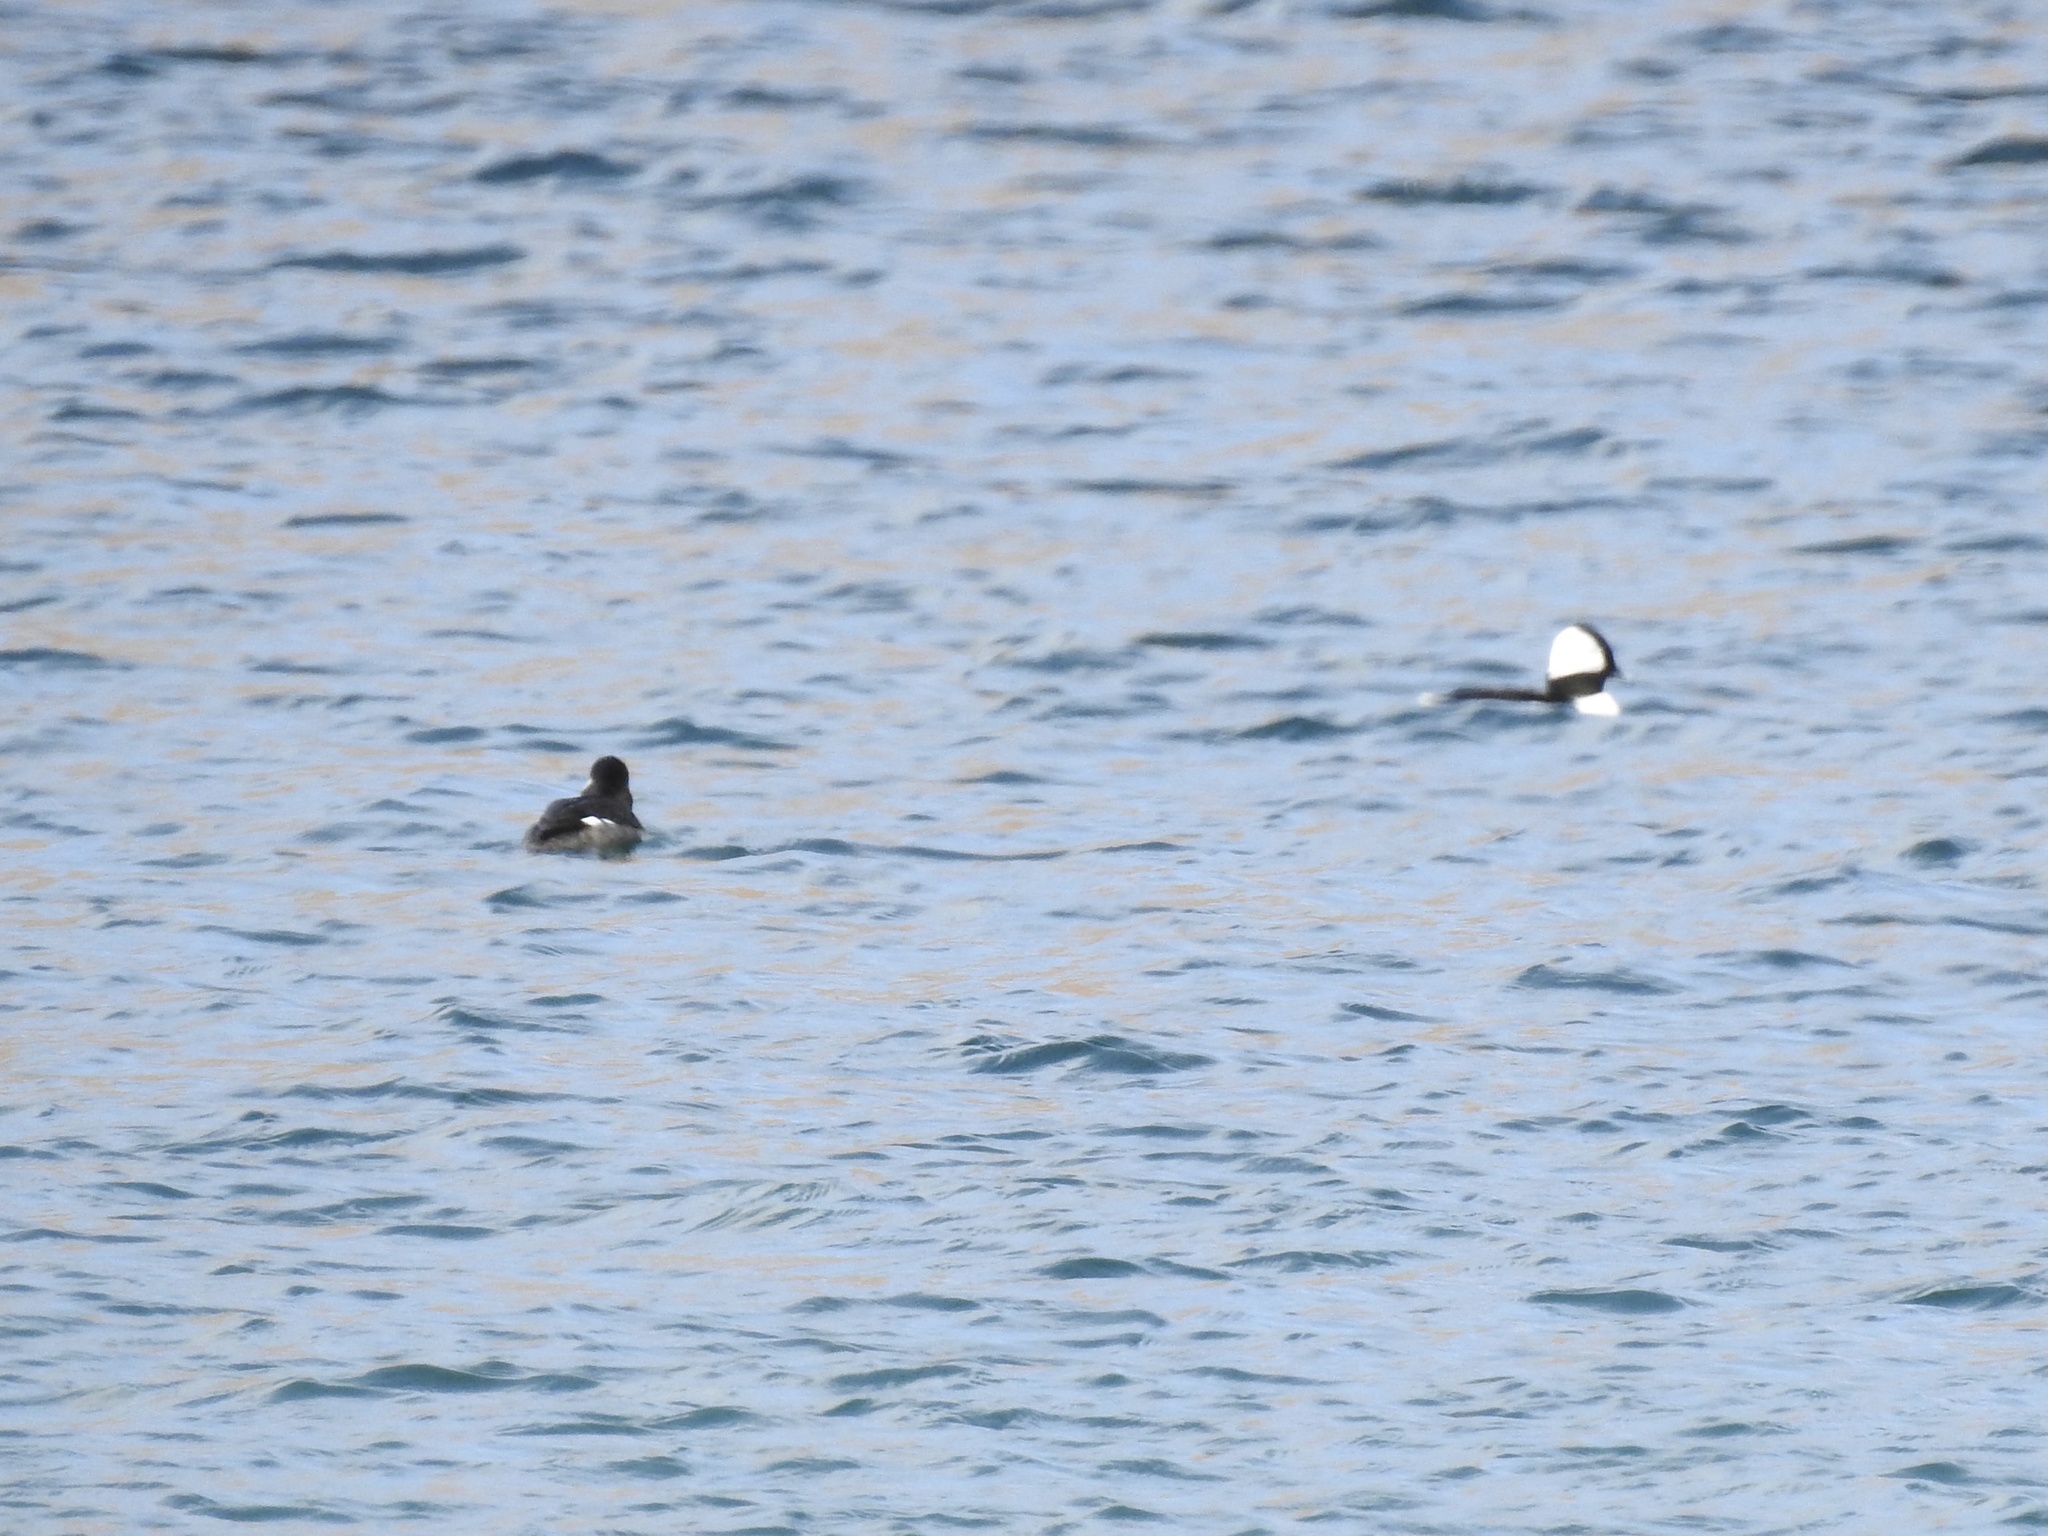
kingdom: Animalia
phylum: Chordata
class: Aves
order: Anseriformes
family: Anatidae
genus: Bucephala
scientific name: Bucephala albeola
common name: Bufflehead
